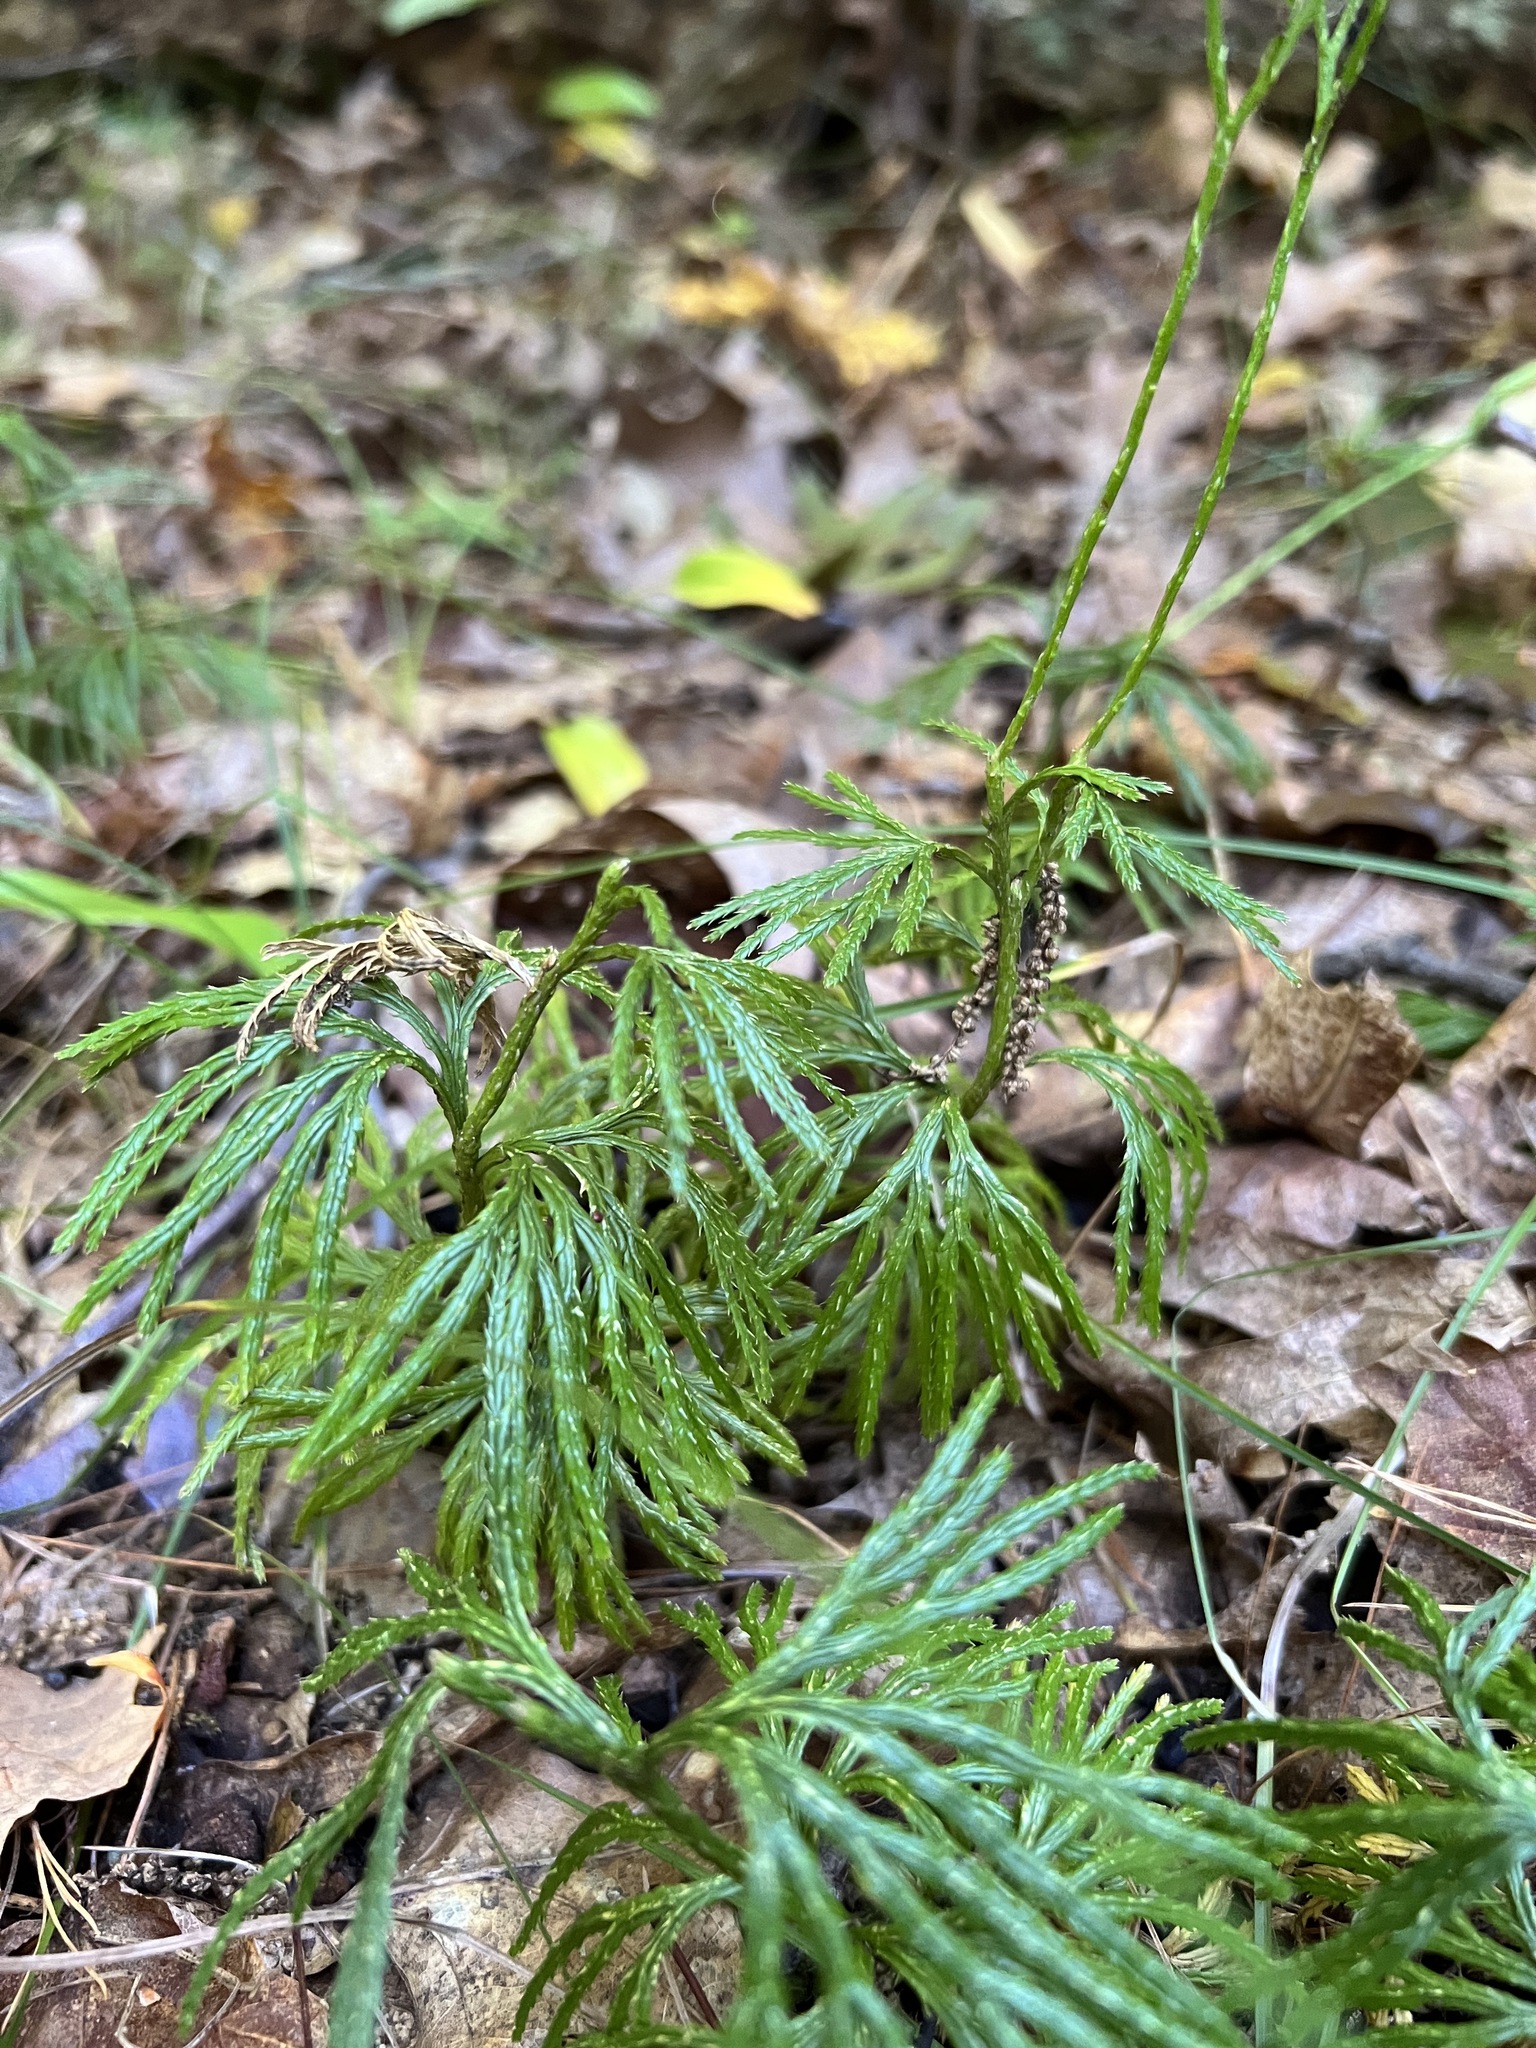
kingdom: Plantae
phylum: Tracheophyta
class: Lycopodiopsida
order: Lycopodiales
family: Lycopodiaceae
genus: Diphasiastrum
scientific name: Diphasiastrum digitatum
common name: Southern running-pine
